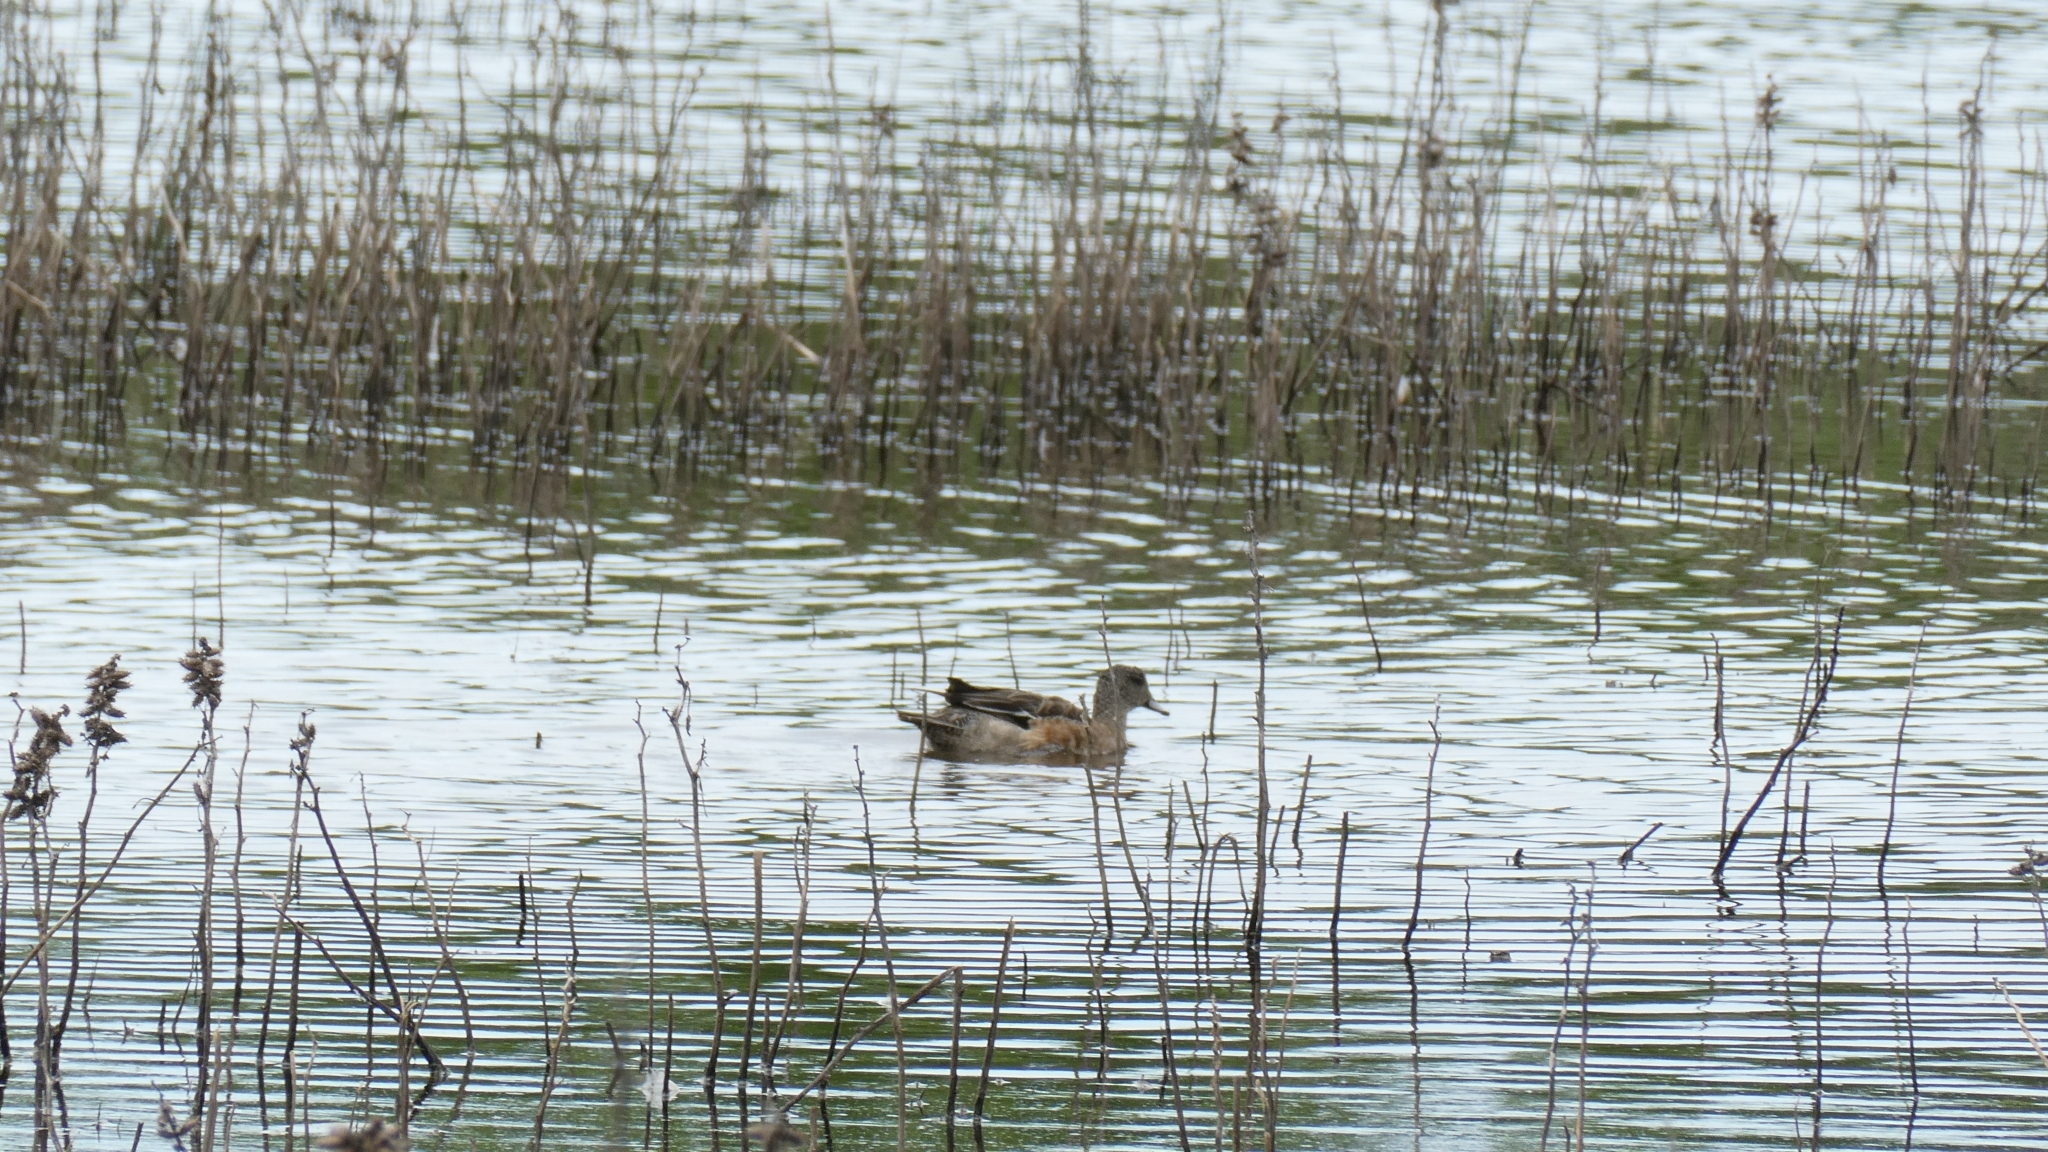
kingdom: Animalia
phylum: Chordata
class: Aves
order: Anseriformes
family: Anatidae
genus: Mareca
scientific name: Mareca americana
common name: American wigeon
